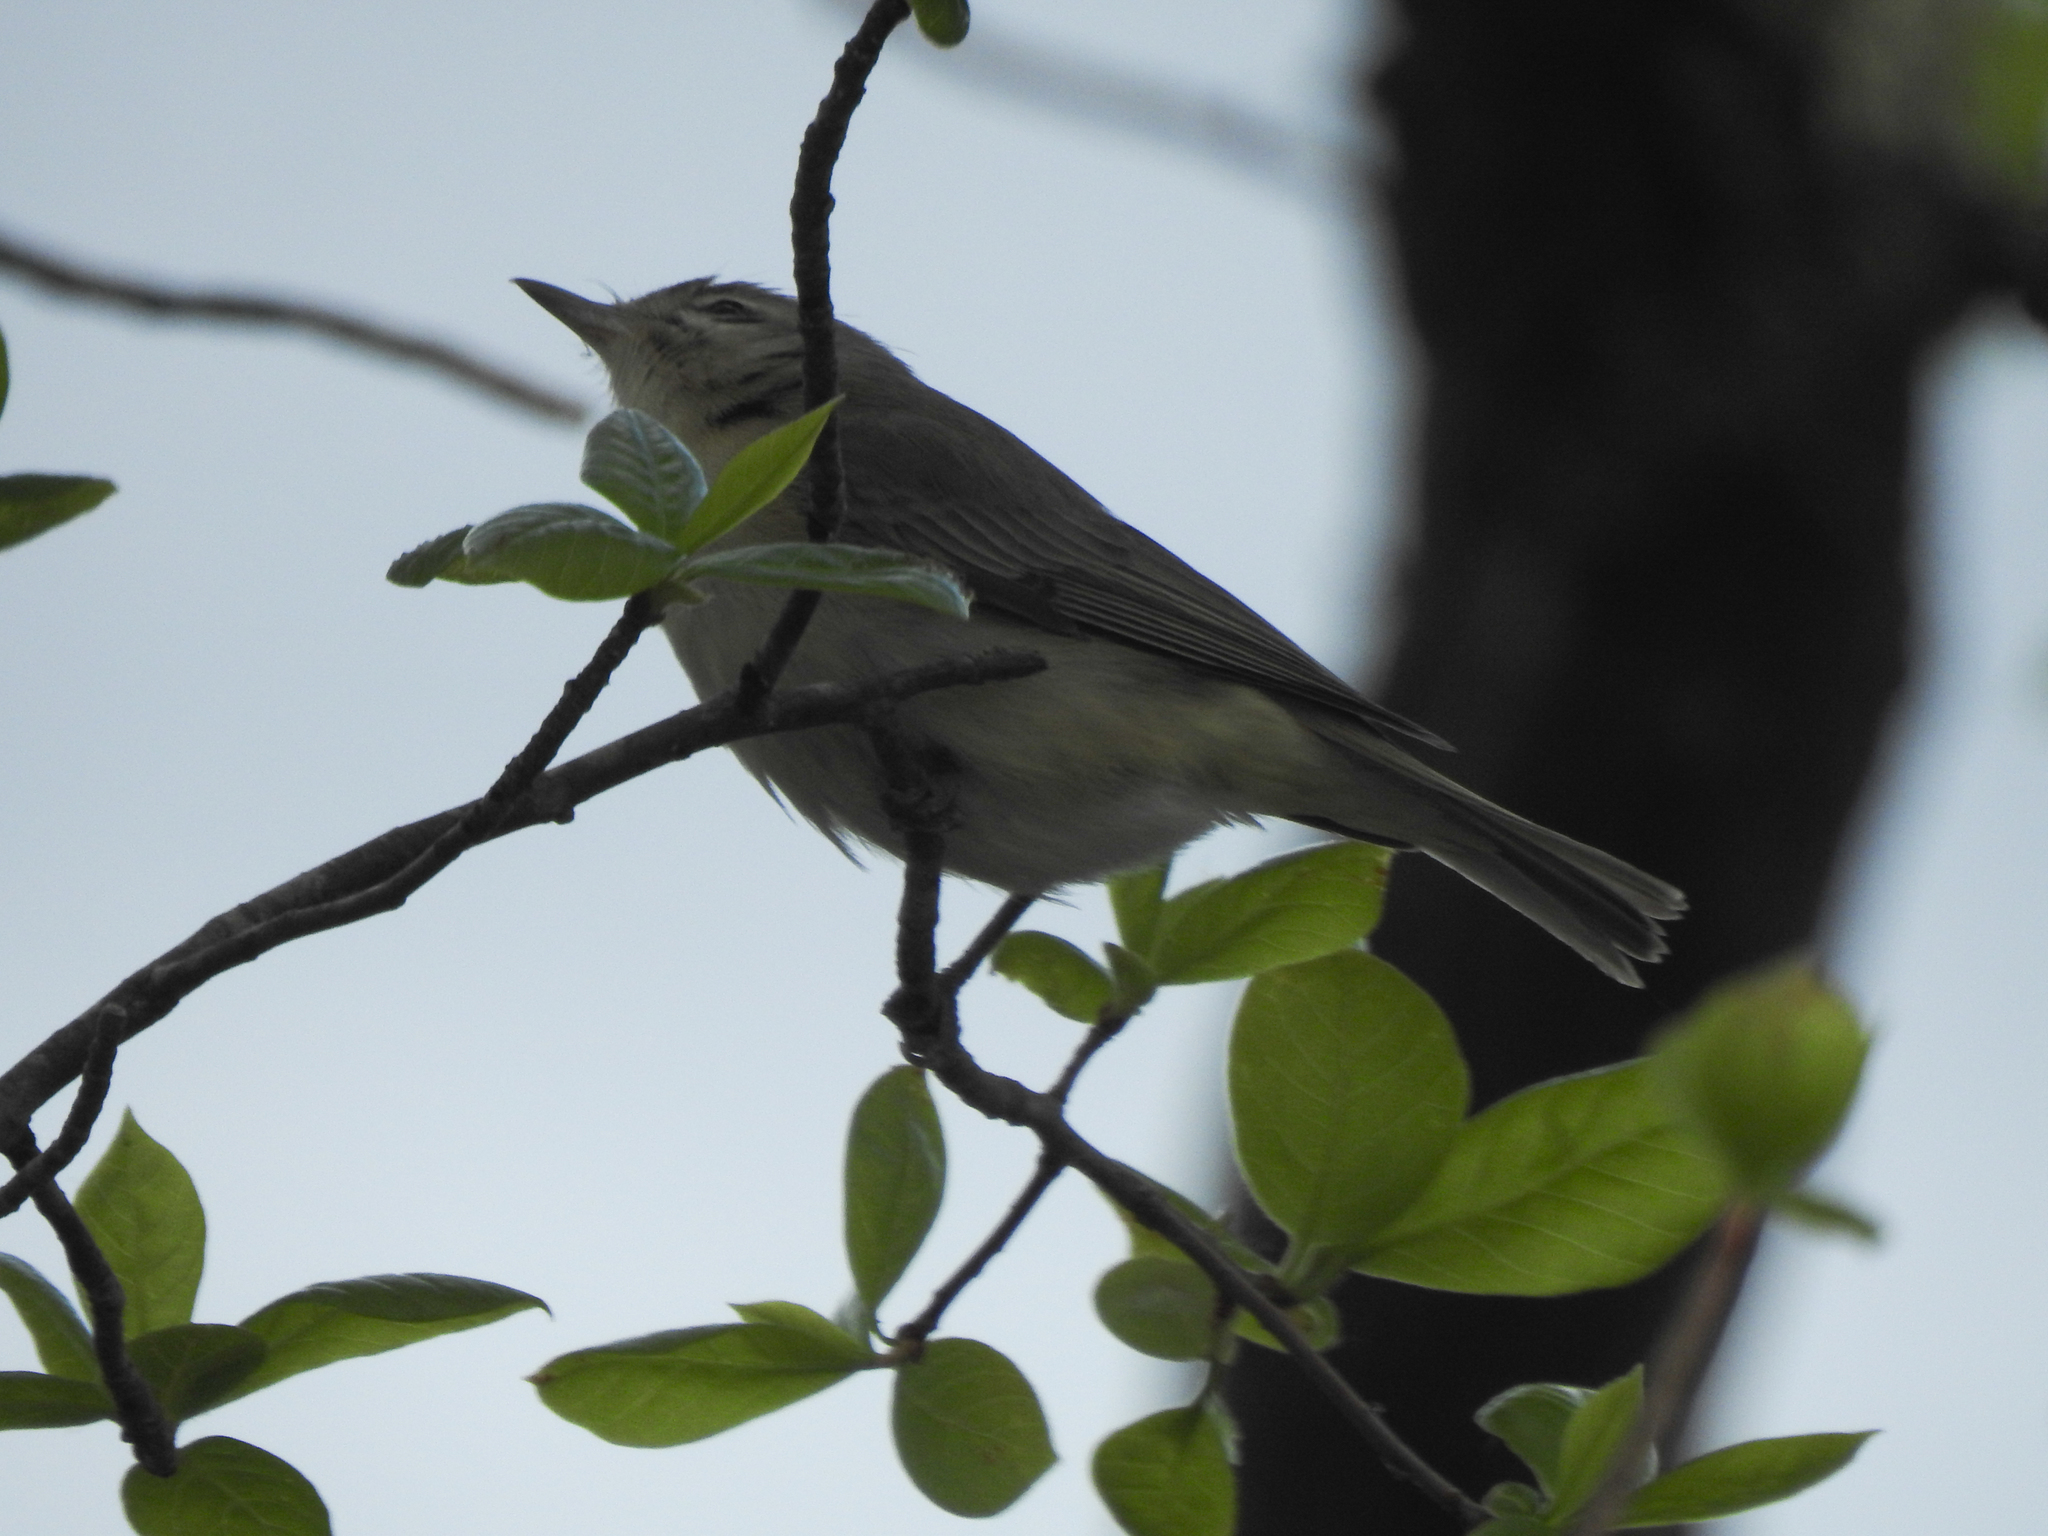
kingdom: Animalia
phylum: Chordata
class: Aves
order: Passeriformes
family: Vireonidae
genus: Vireo
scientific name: Vireo gilvus
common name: Warbling vireo
